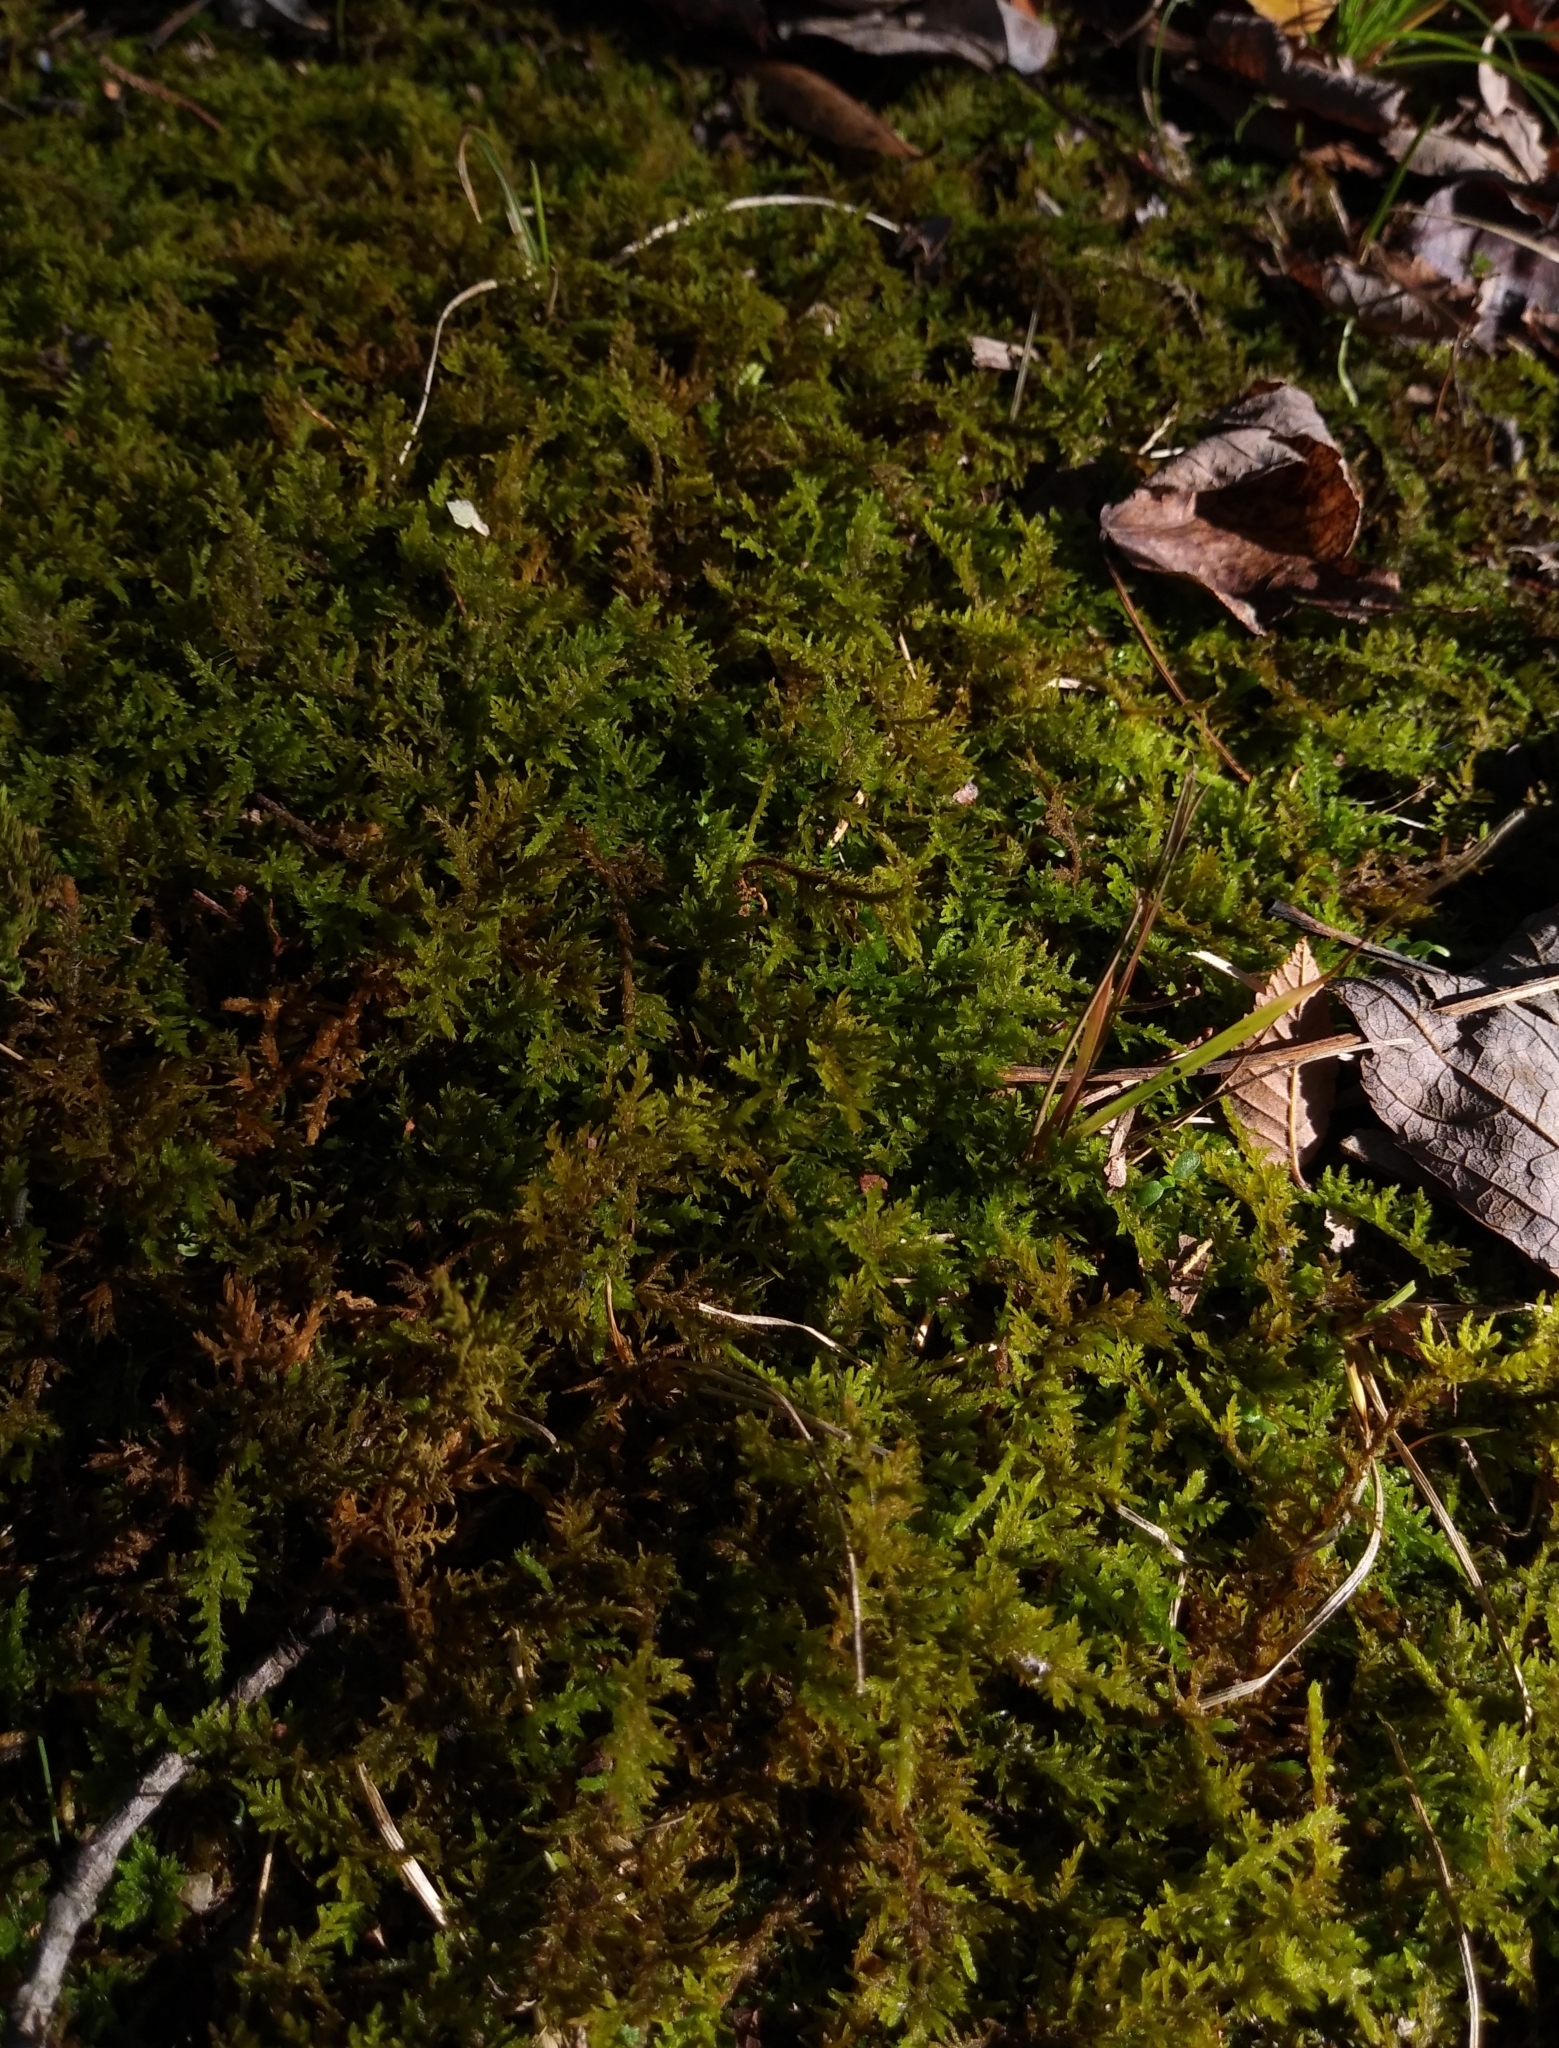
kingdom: Plantae
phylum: Bryophyta
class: Bryopsida
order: Hypnales
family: Thuidiaceae
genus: Thuidium
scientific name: Thuidium delicatulum
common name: Delicate fern moss
